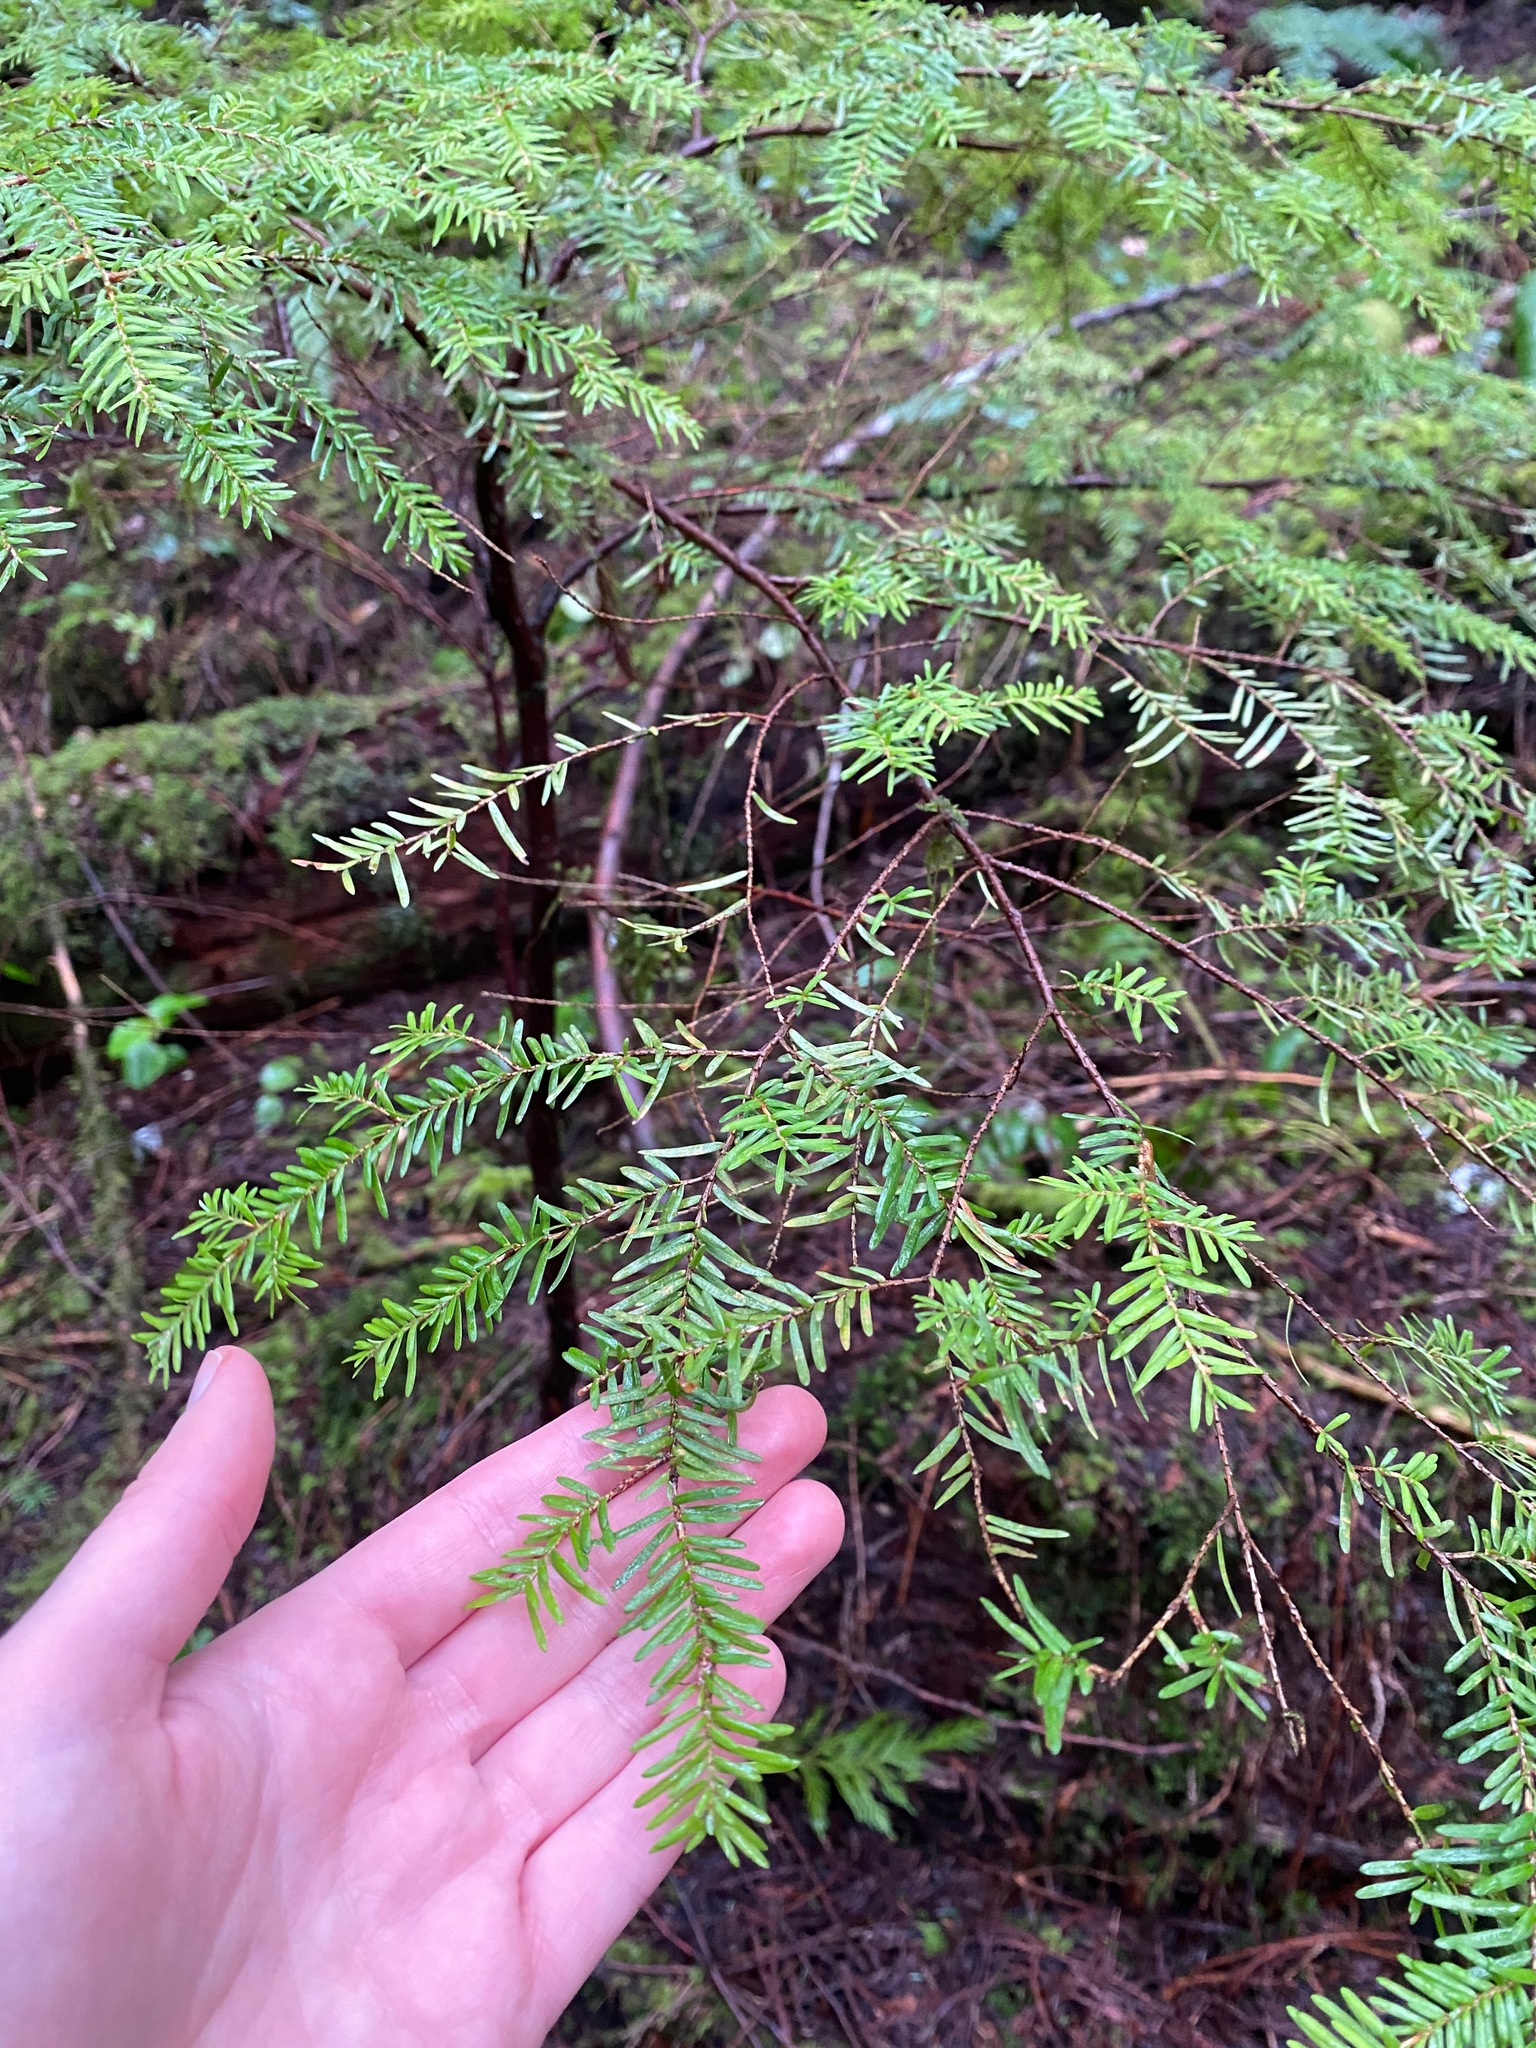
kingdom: Plantae
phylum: Tracheophyta
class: Pinopsida
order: Pinales
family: Pinaceae
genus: Tsuga
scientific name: Tsuga heterophylla
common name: Western hemlock
